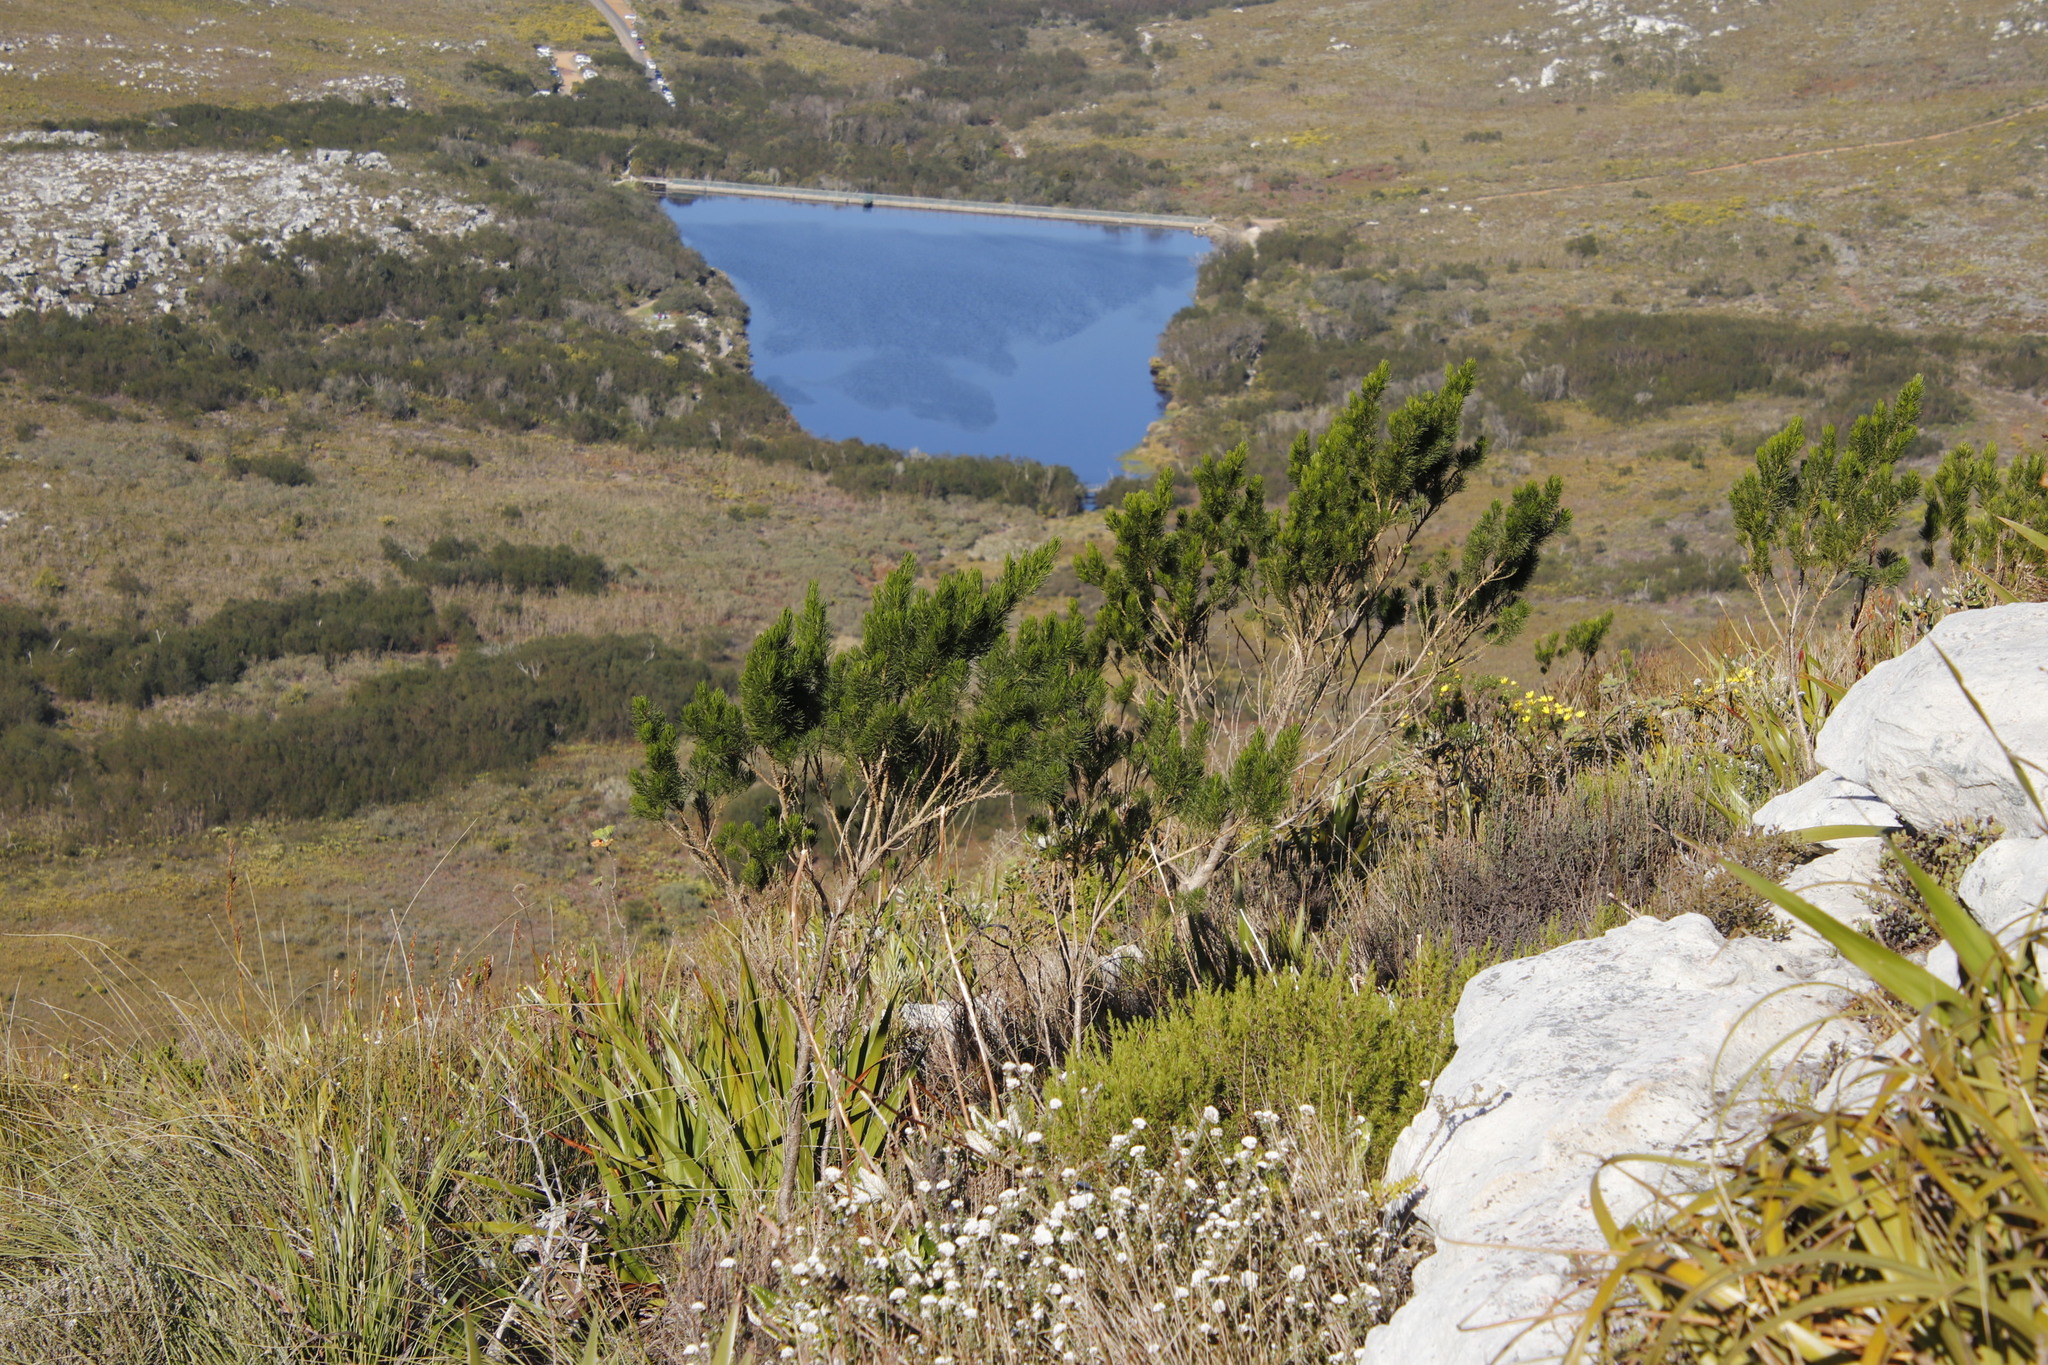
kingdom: Plantae
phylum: Tracheophyta
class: Magnoliopsida
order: Asterales
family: Asteraceae
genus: Metalasia
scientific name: Metalasia divergens
